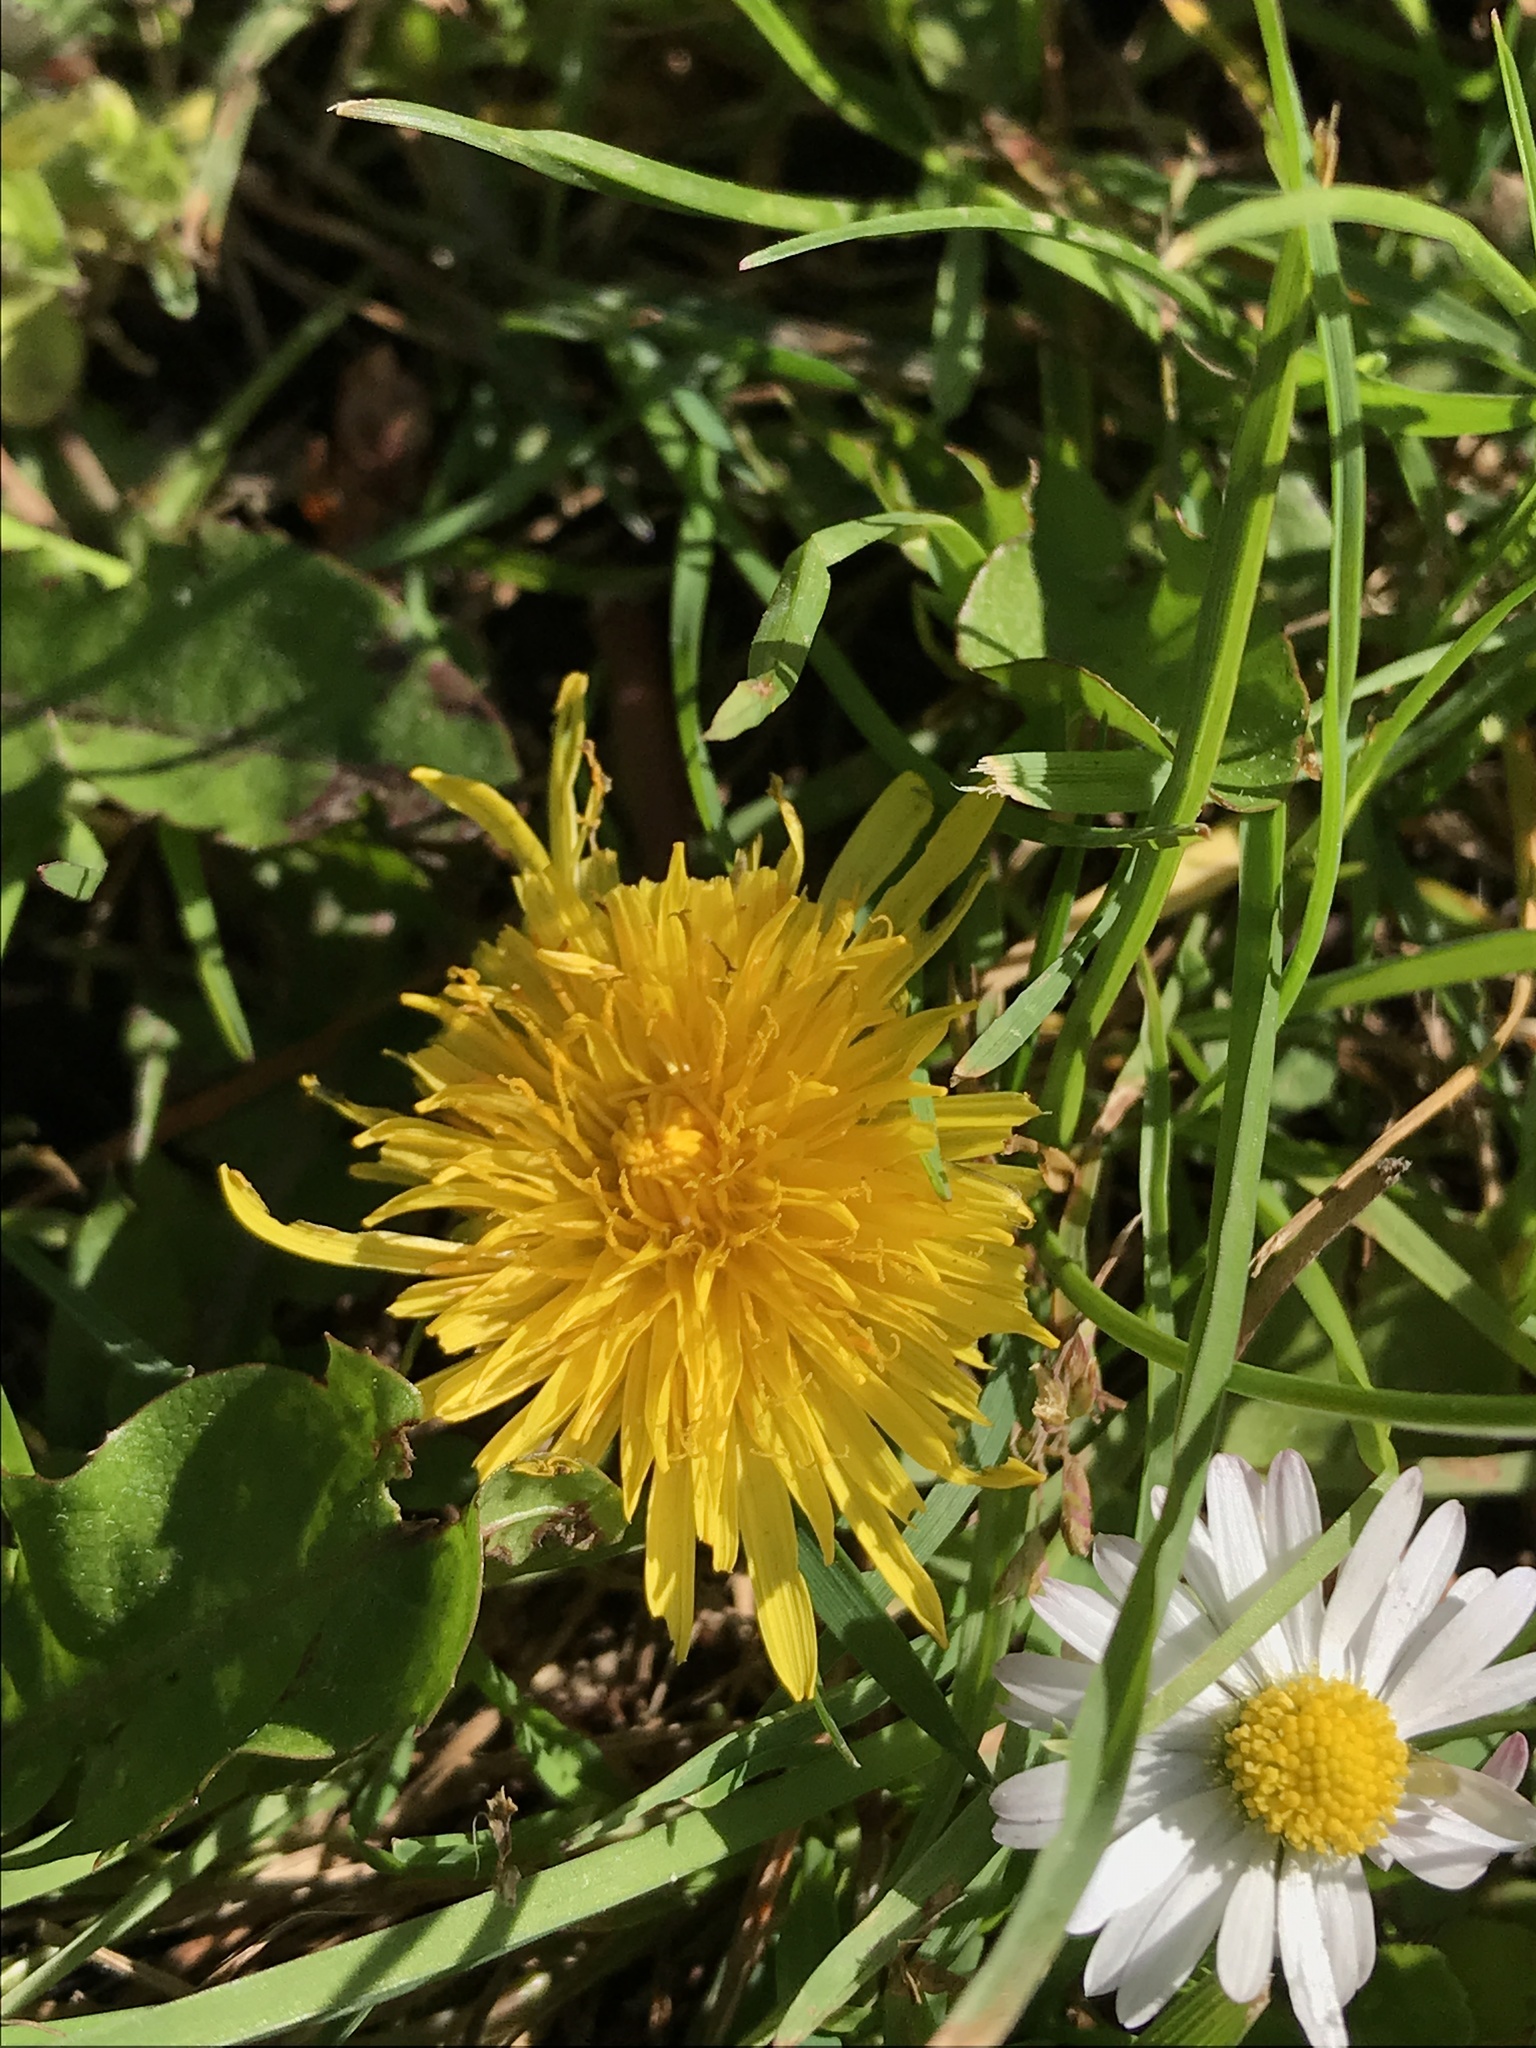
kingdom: Plantae
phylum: Tracheophyta
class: Magnoliopsida
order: Asterales
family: Asteraceae
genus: Taraxacum
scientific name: Taraxacum officinale
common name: Common dandelion
